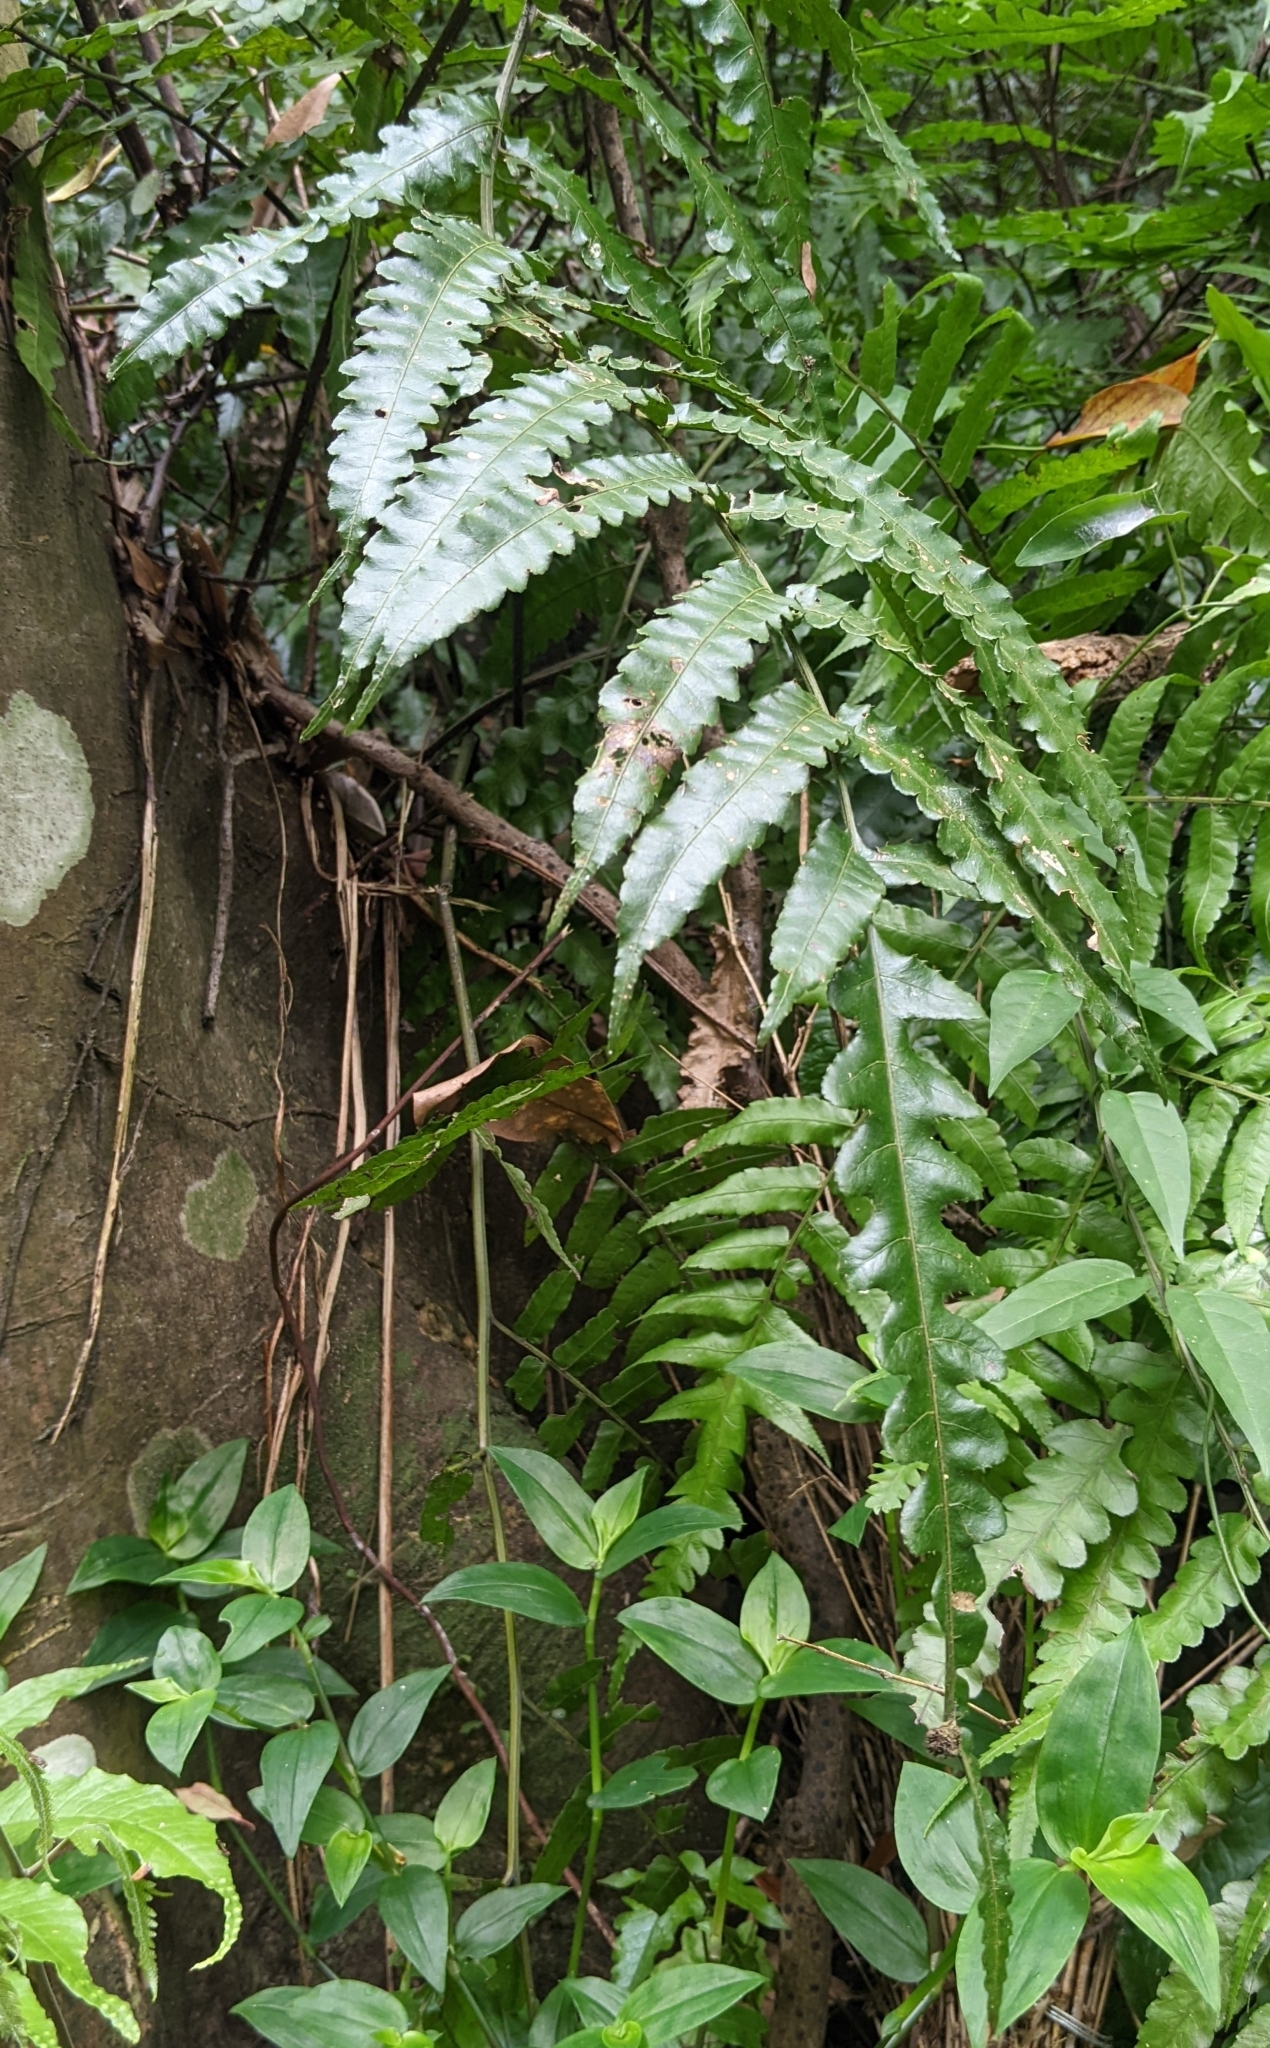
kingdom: Plantae
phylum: Tracheophyta
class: Polypodiopsida
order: Polypodiales
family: Dryopteridaceae
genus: Bolbitis
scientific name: Bolbitis subcordata
